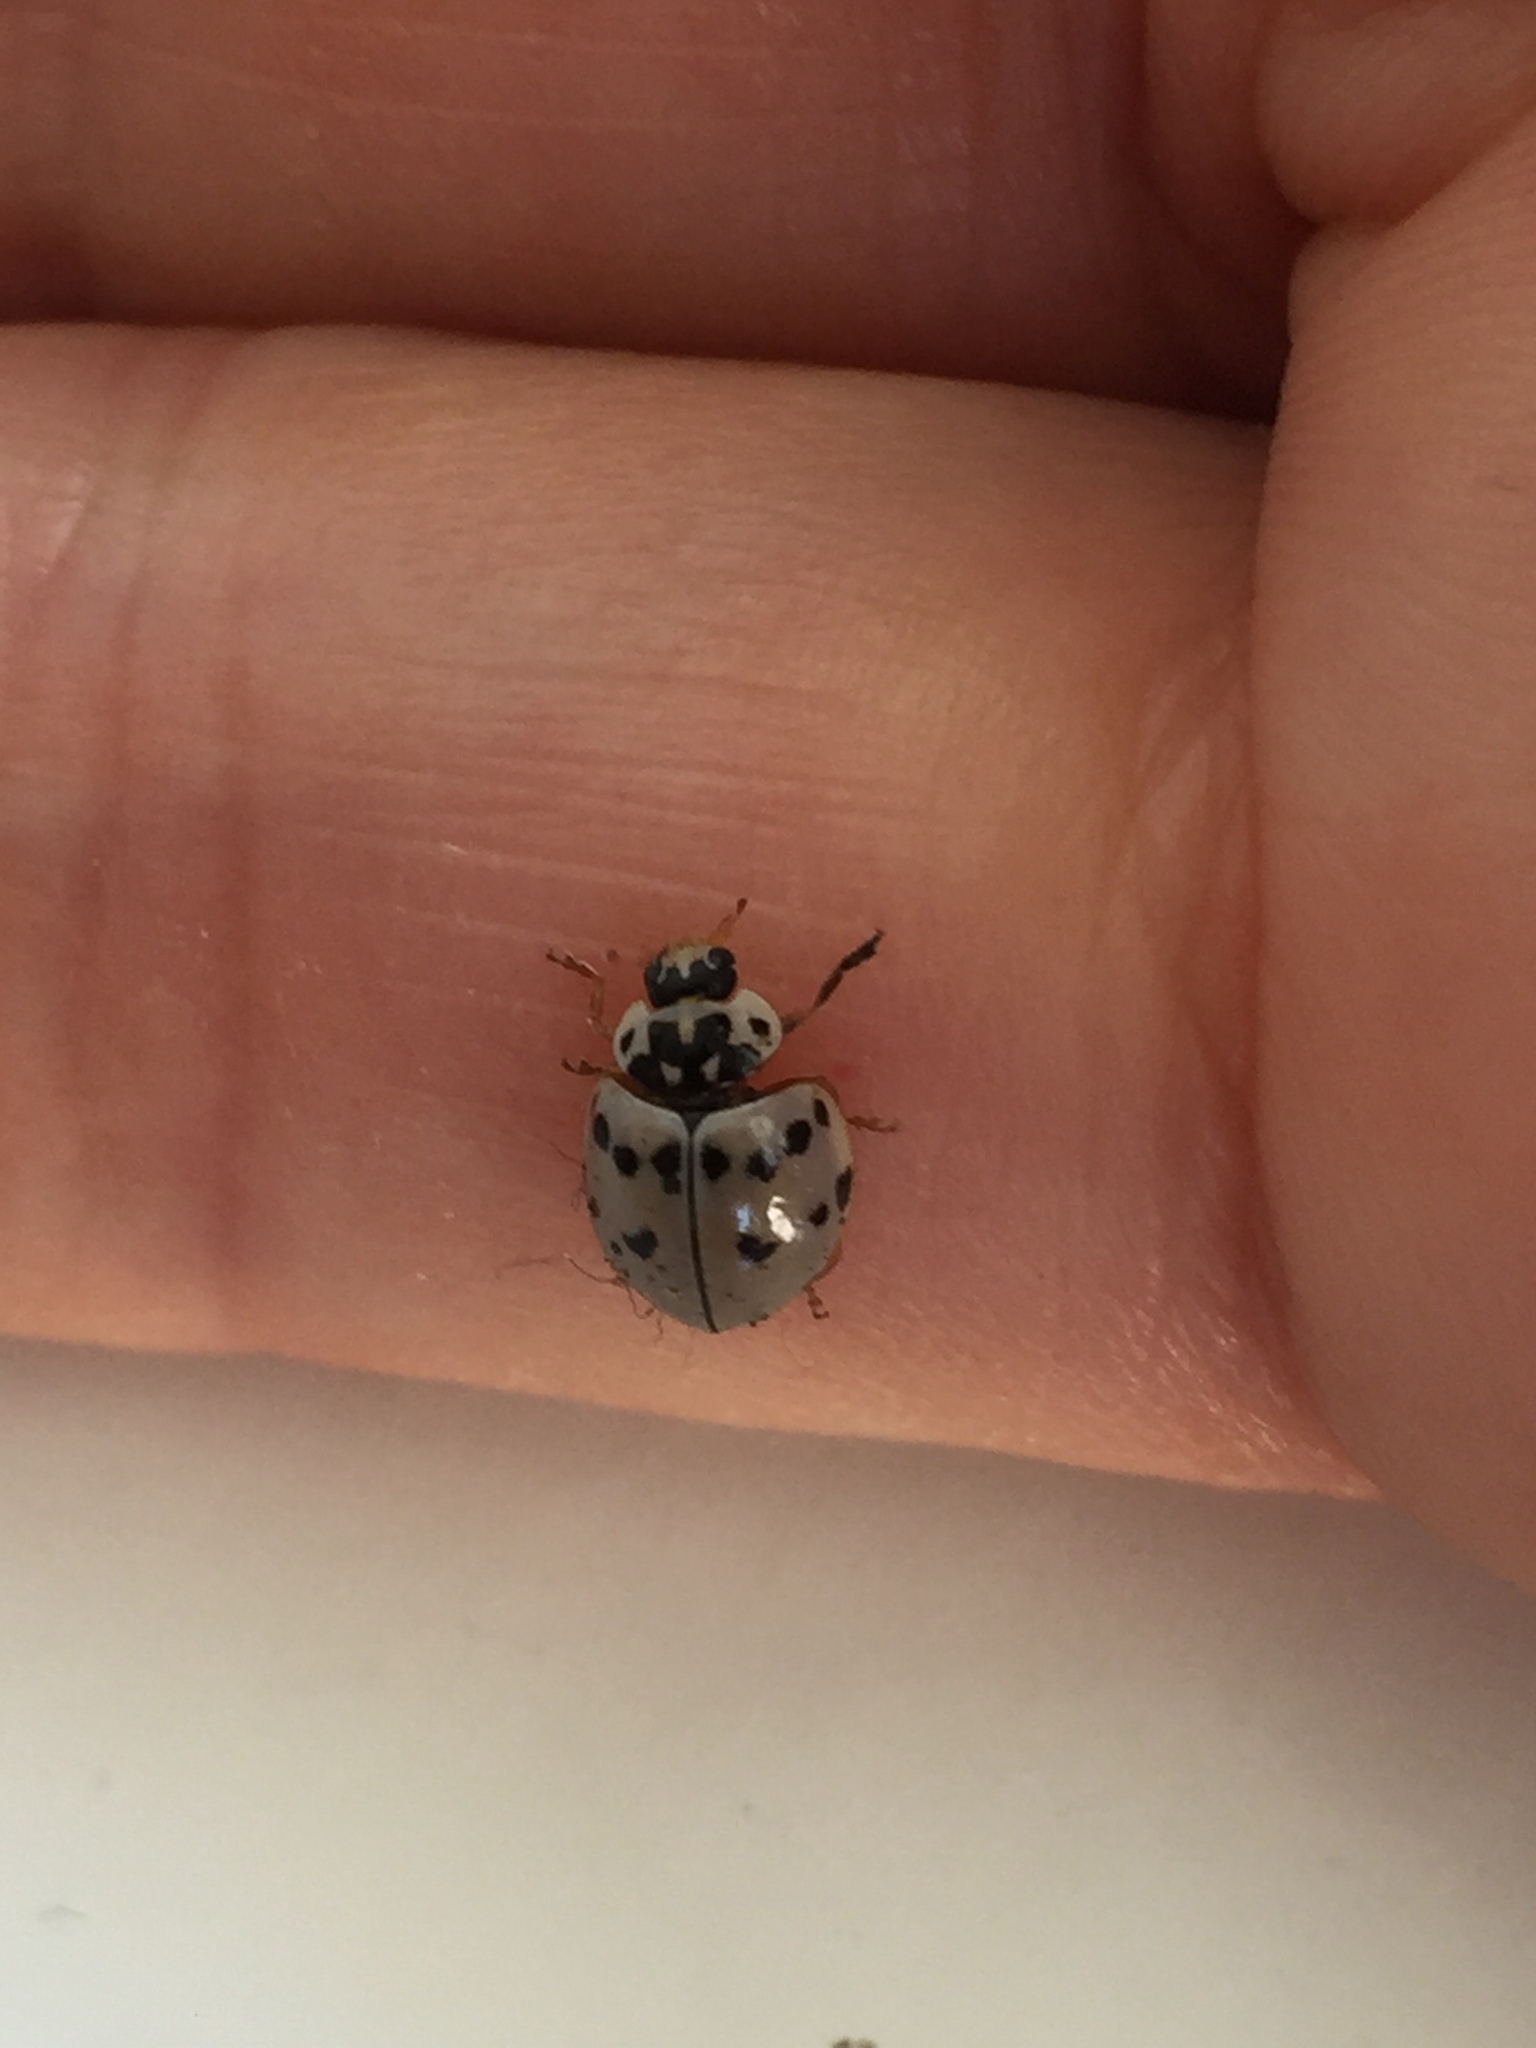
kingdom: Animalia
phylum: Arthropoda
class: Insecta
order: Coleoptera
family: Coccinellidae
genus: Olla
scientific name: Olla v-nigrum
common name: Ashy gray lady beetle
